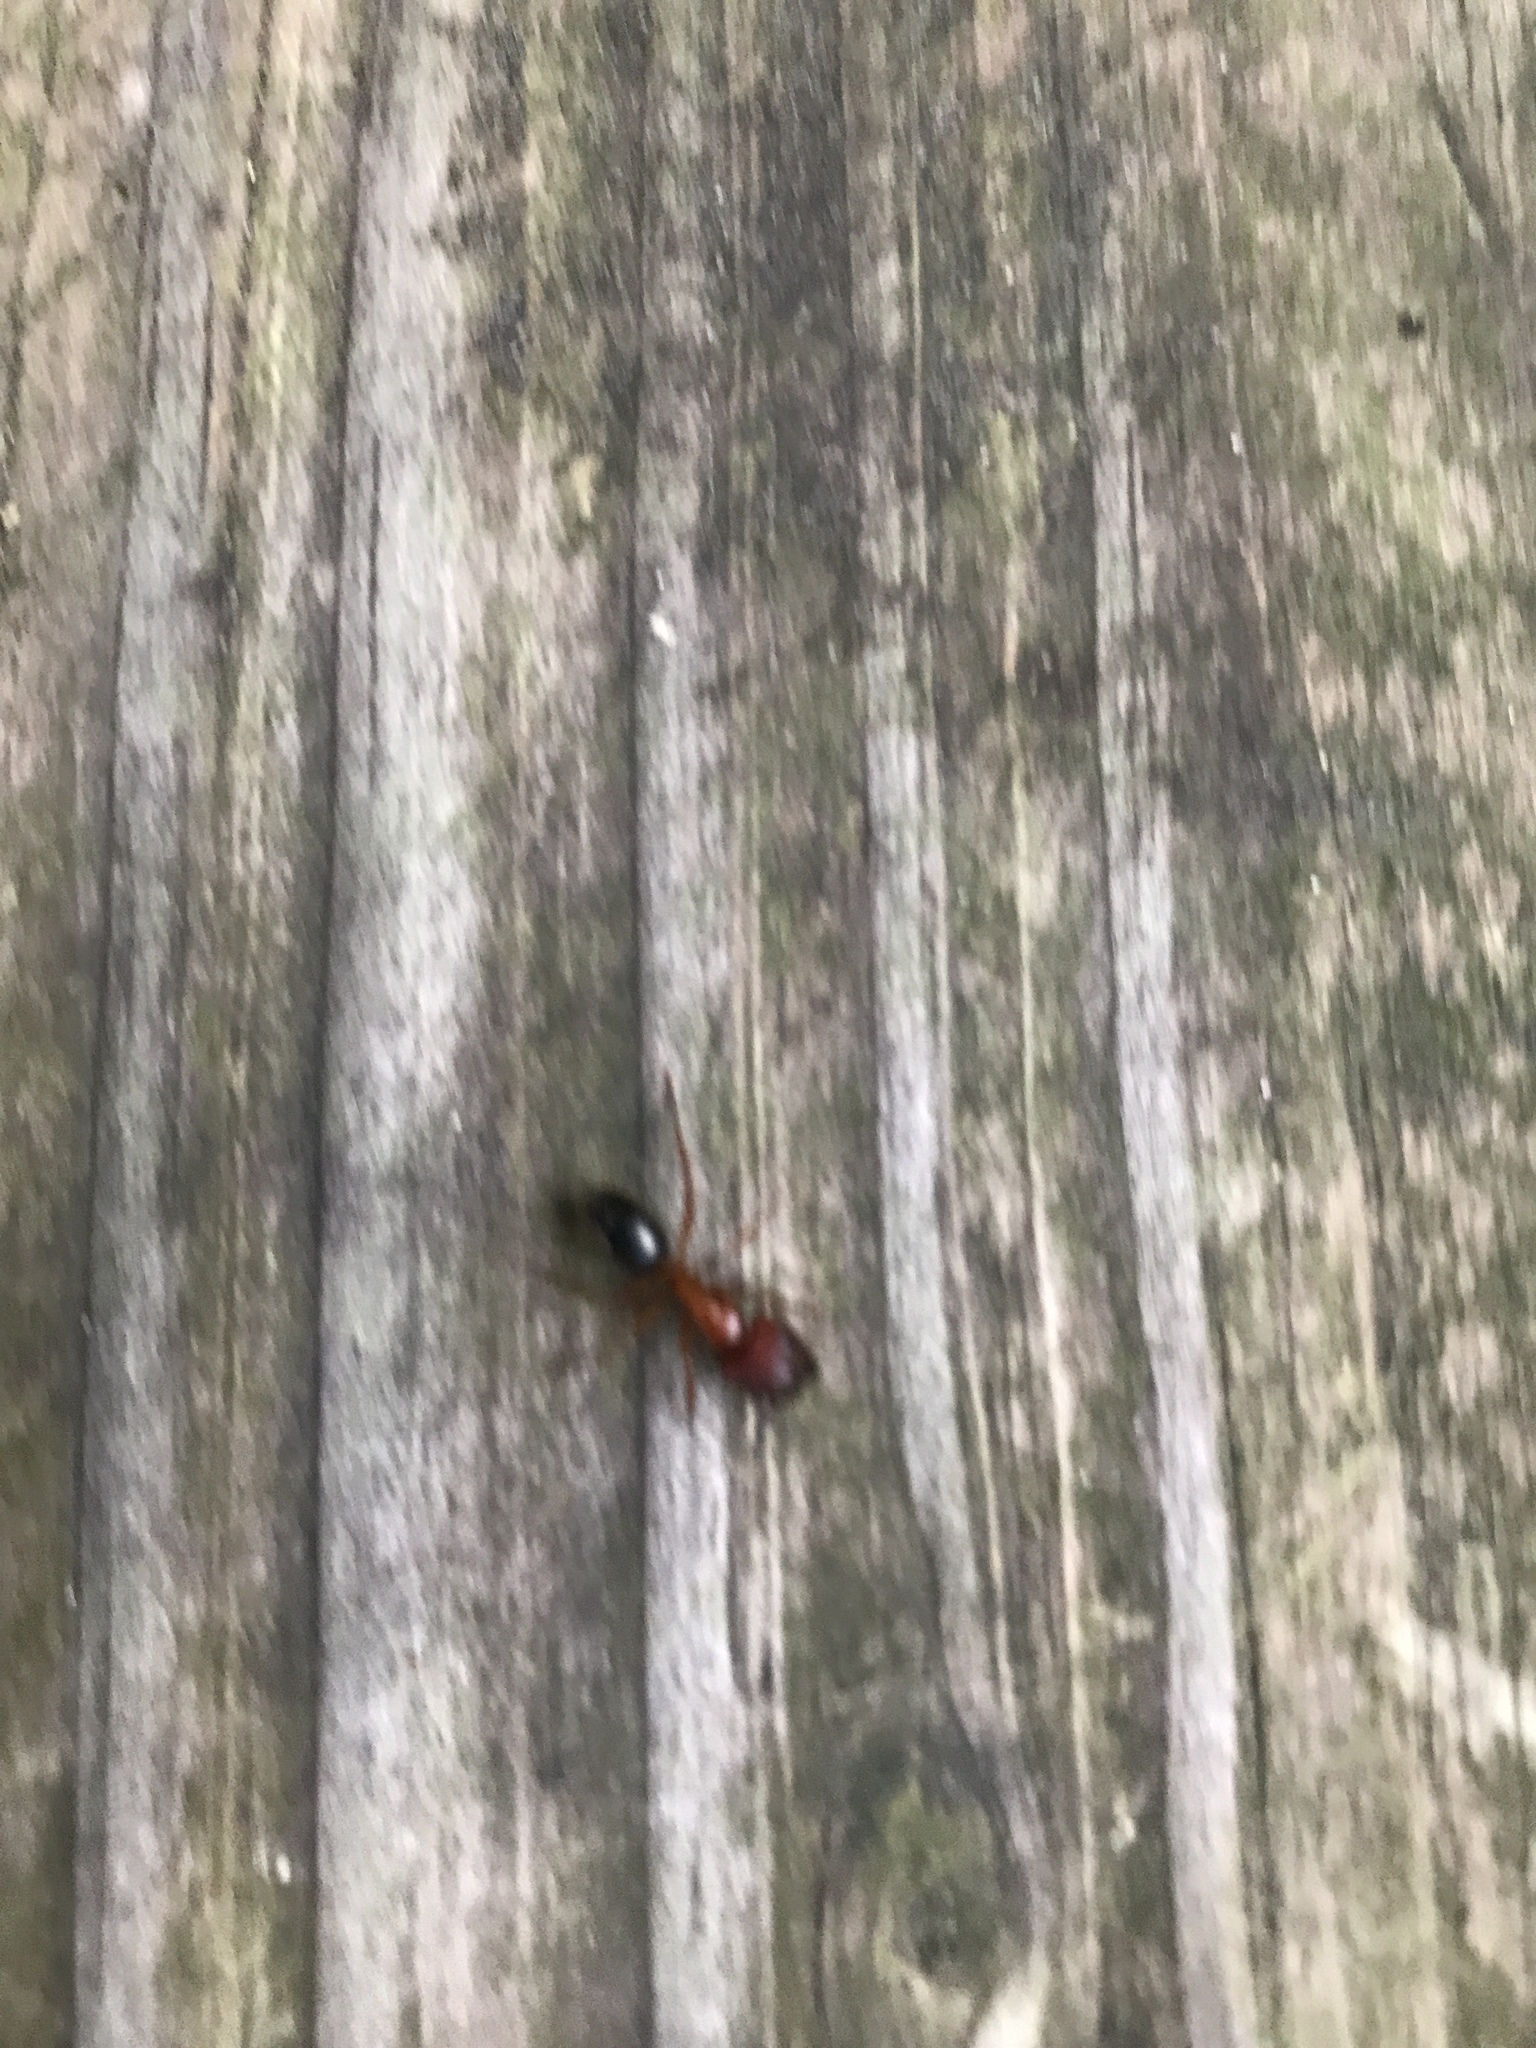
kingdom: Animalia
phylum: Arthropoda
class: Insecta
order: Hymenoptera
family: Formicidae
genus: Camponotus
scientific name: Camponotus floridanus
